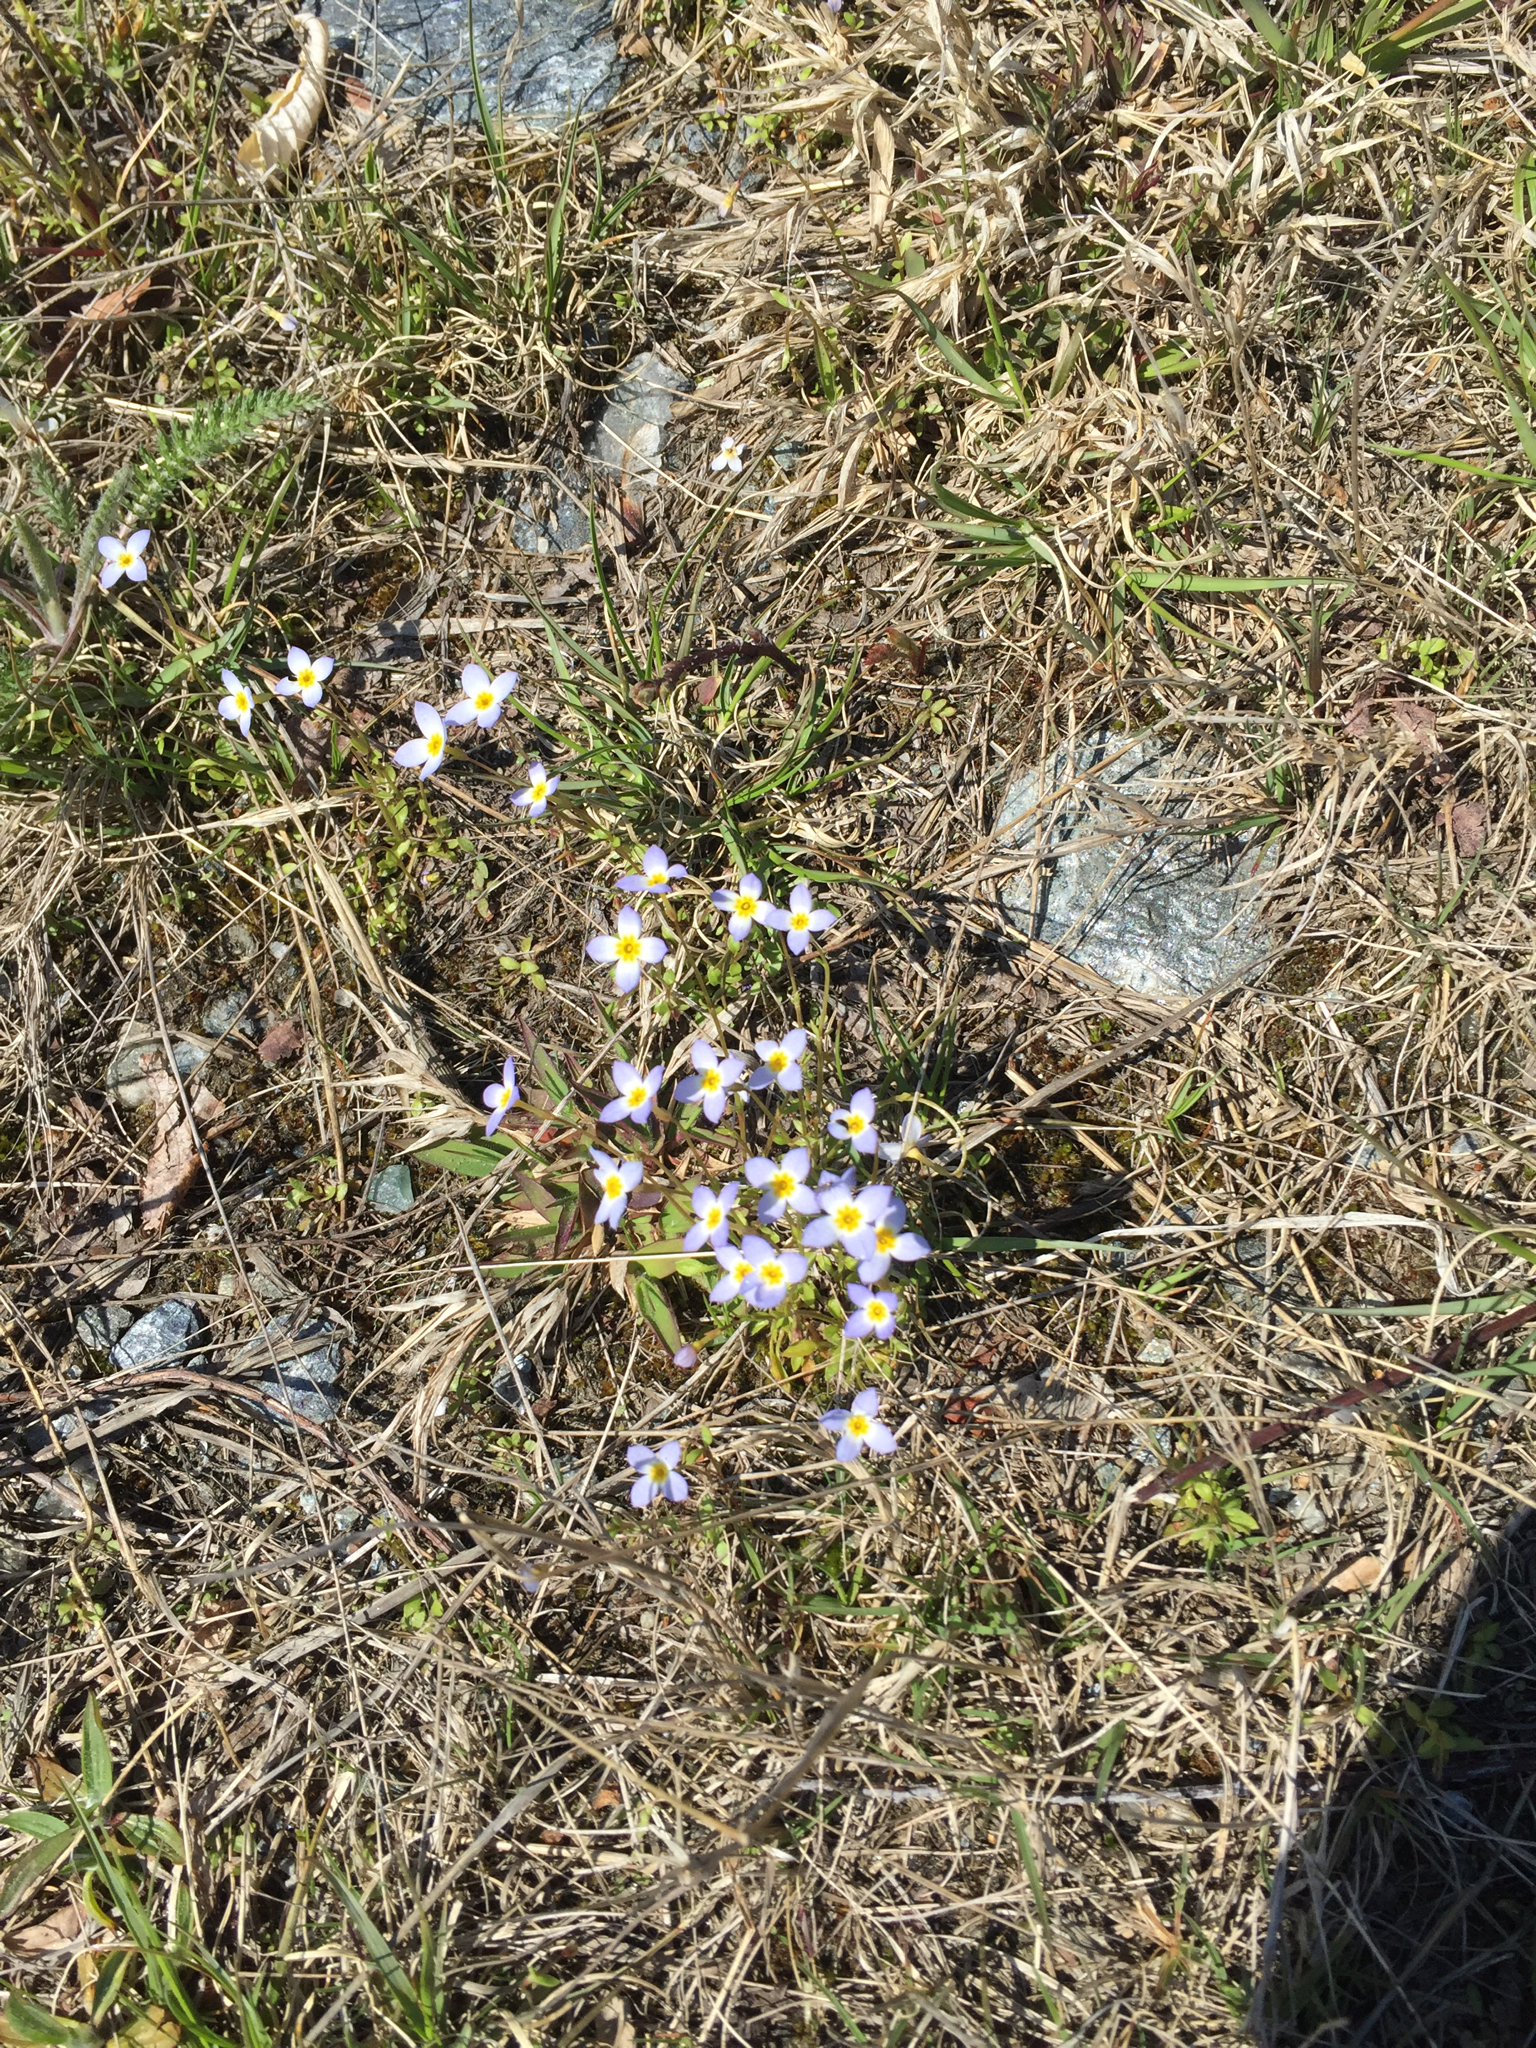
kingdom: Plantae
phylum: Tracheophyta
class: Magnoliopsida
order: Gentianales
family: Rubiaceae
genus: Houstonia
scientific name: Houstonia caerulea
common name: Bluets
